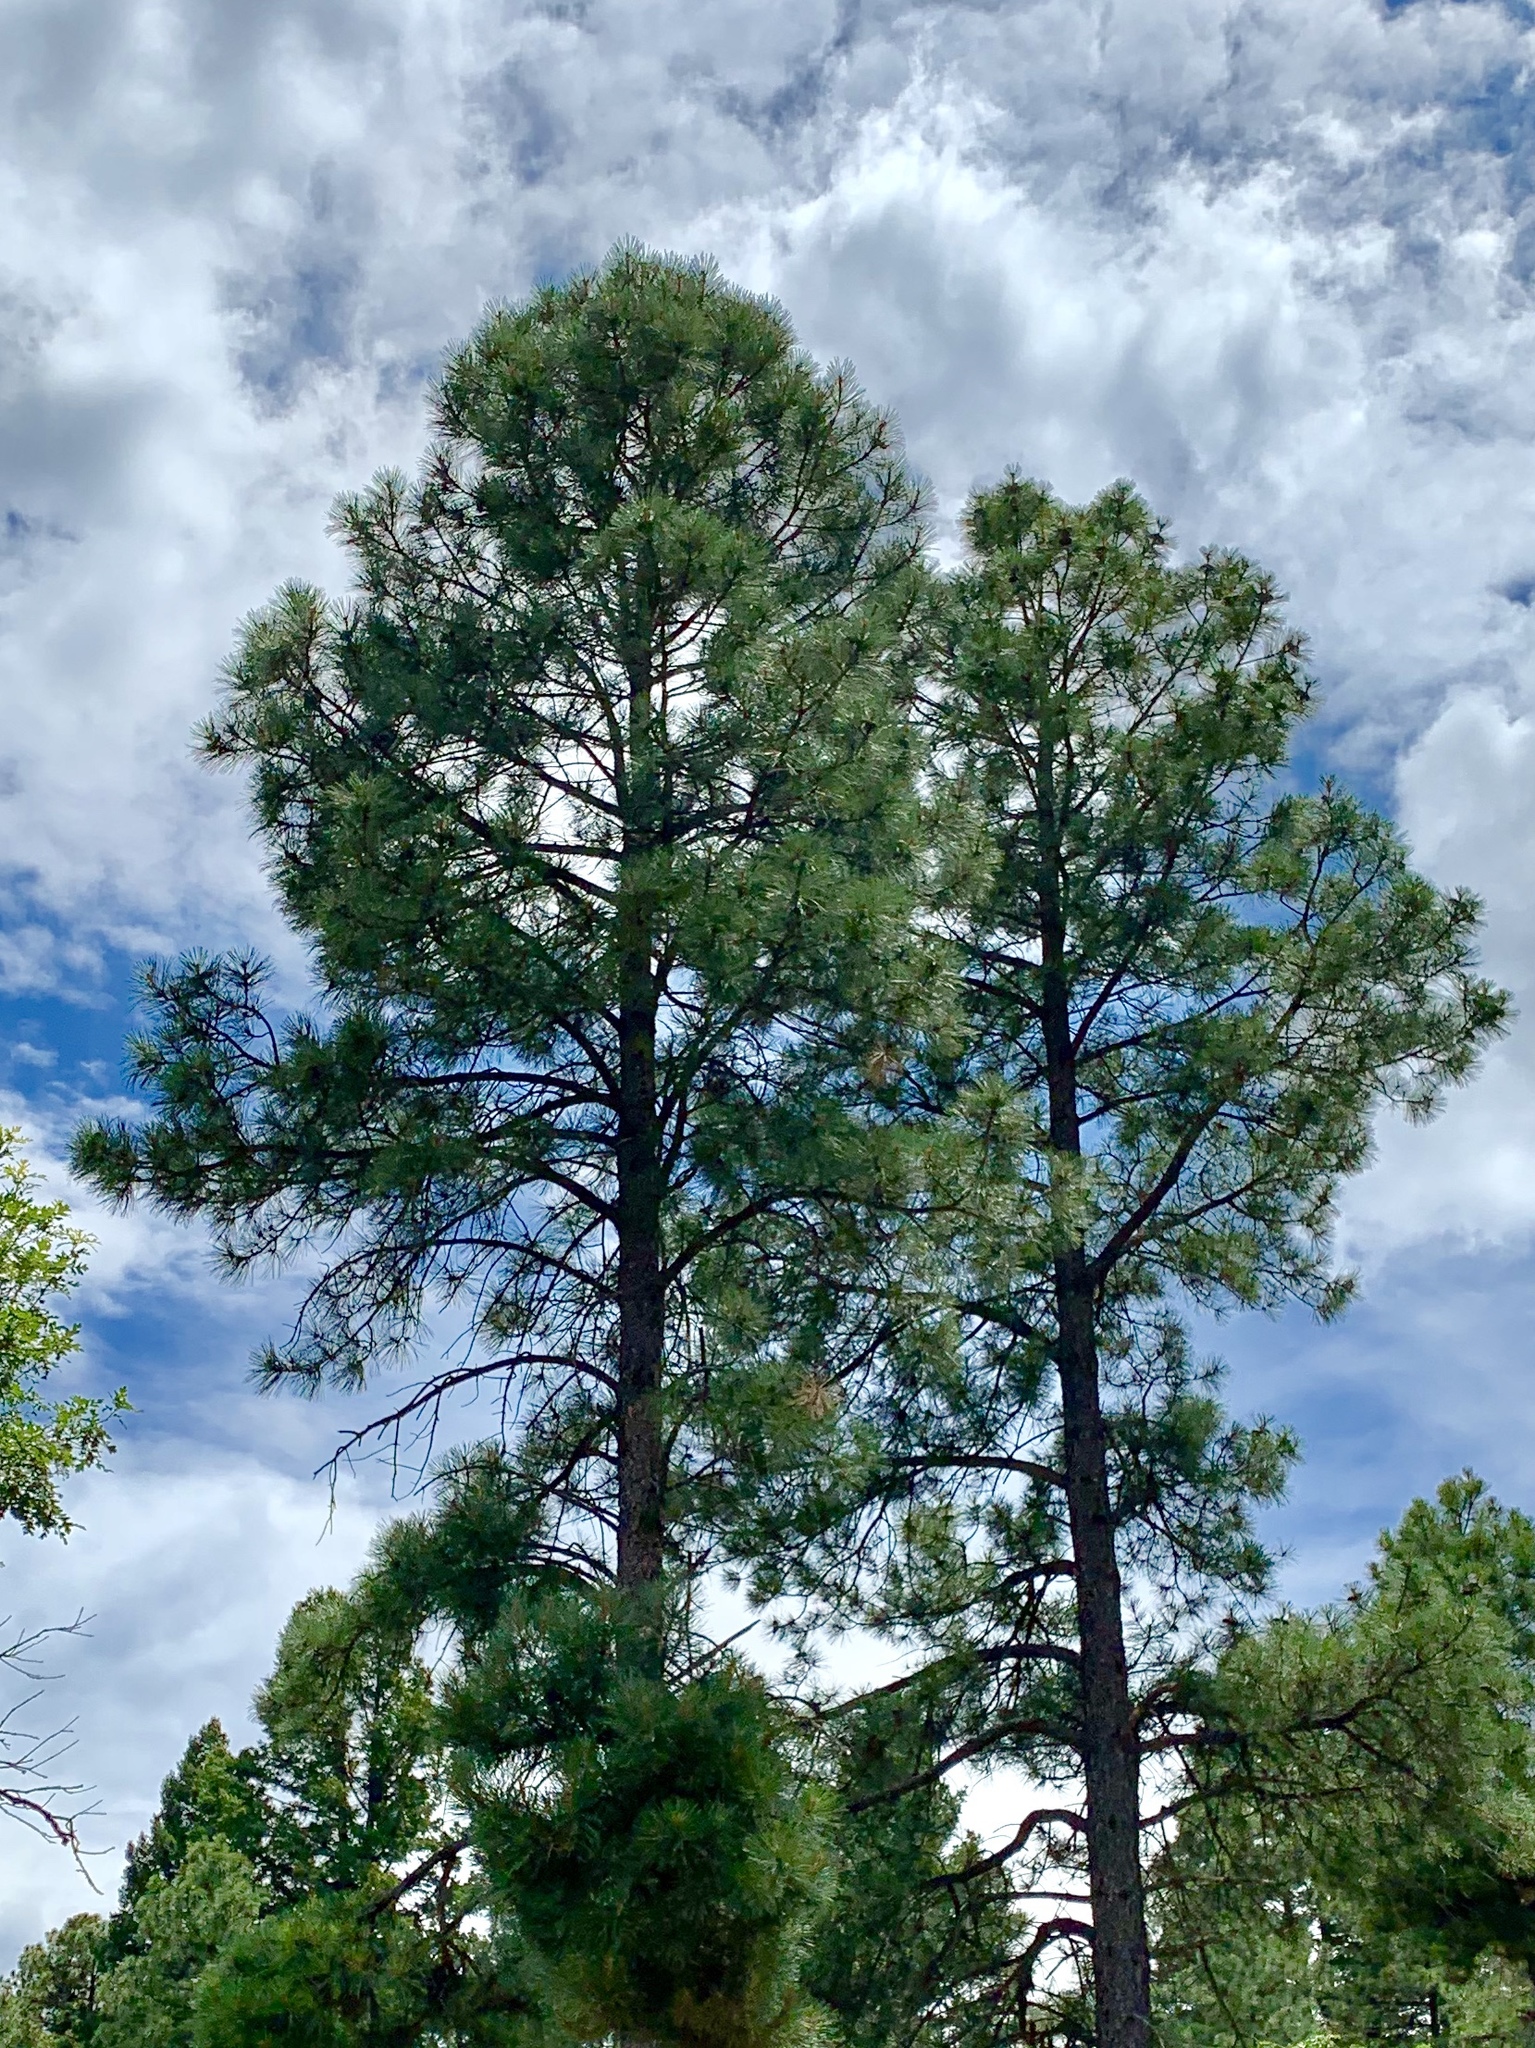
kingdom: Plantae
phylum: Tracheophyta
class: Pinopsida
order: Pinales
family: Pinaceae
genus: Pinus
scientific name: Pinus ponderosa
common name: Western yellow-pine
